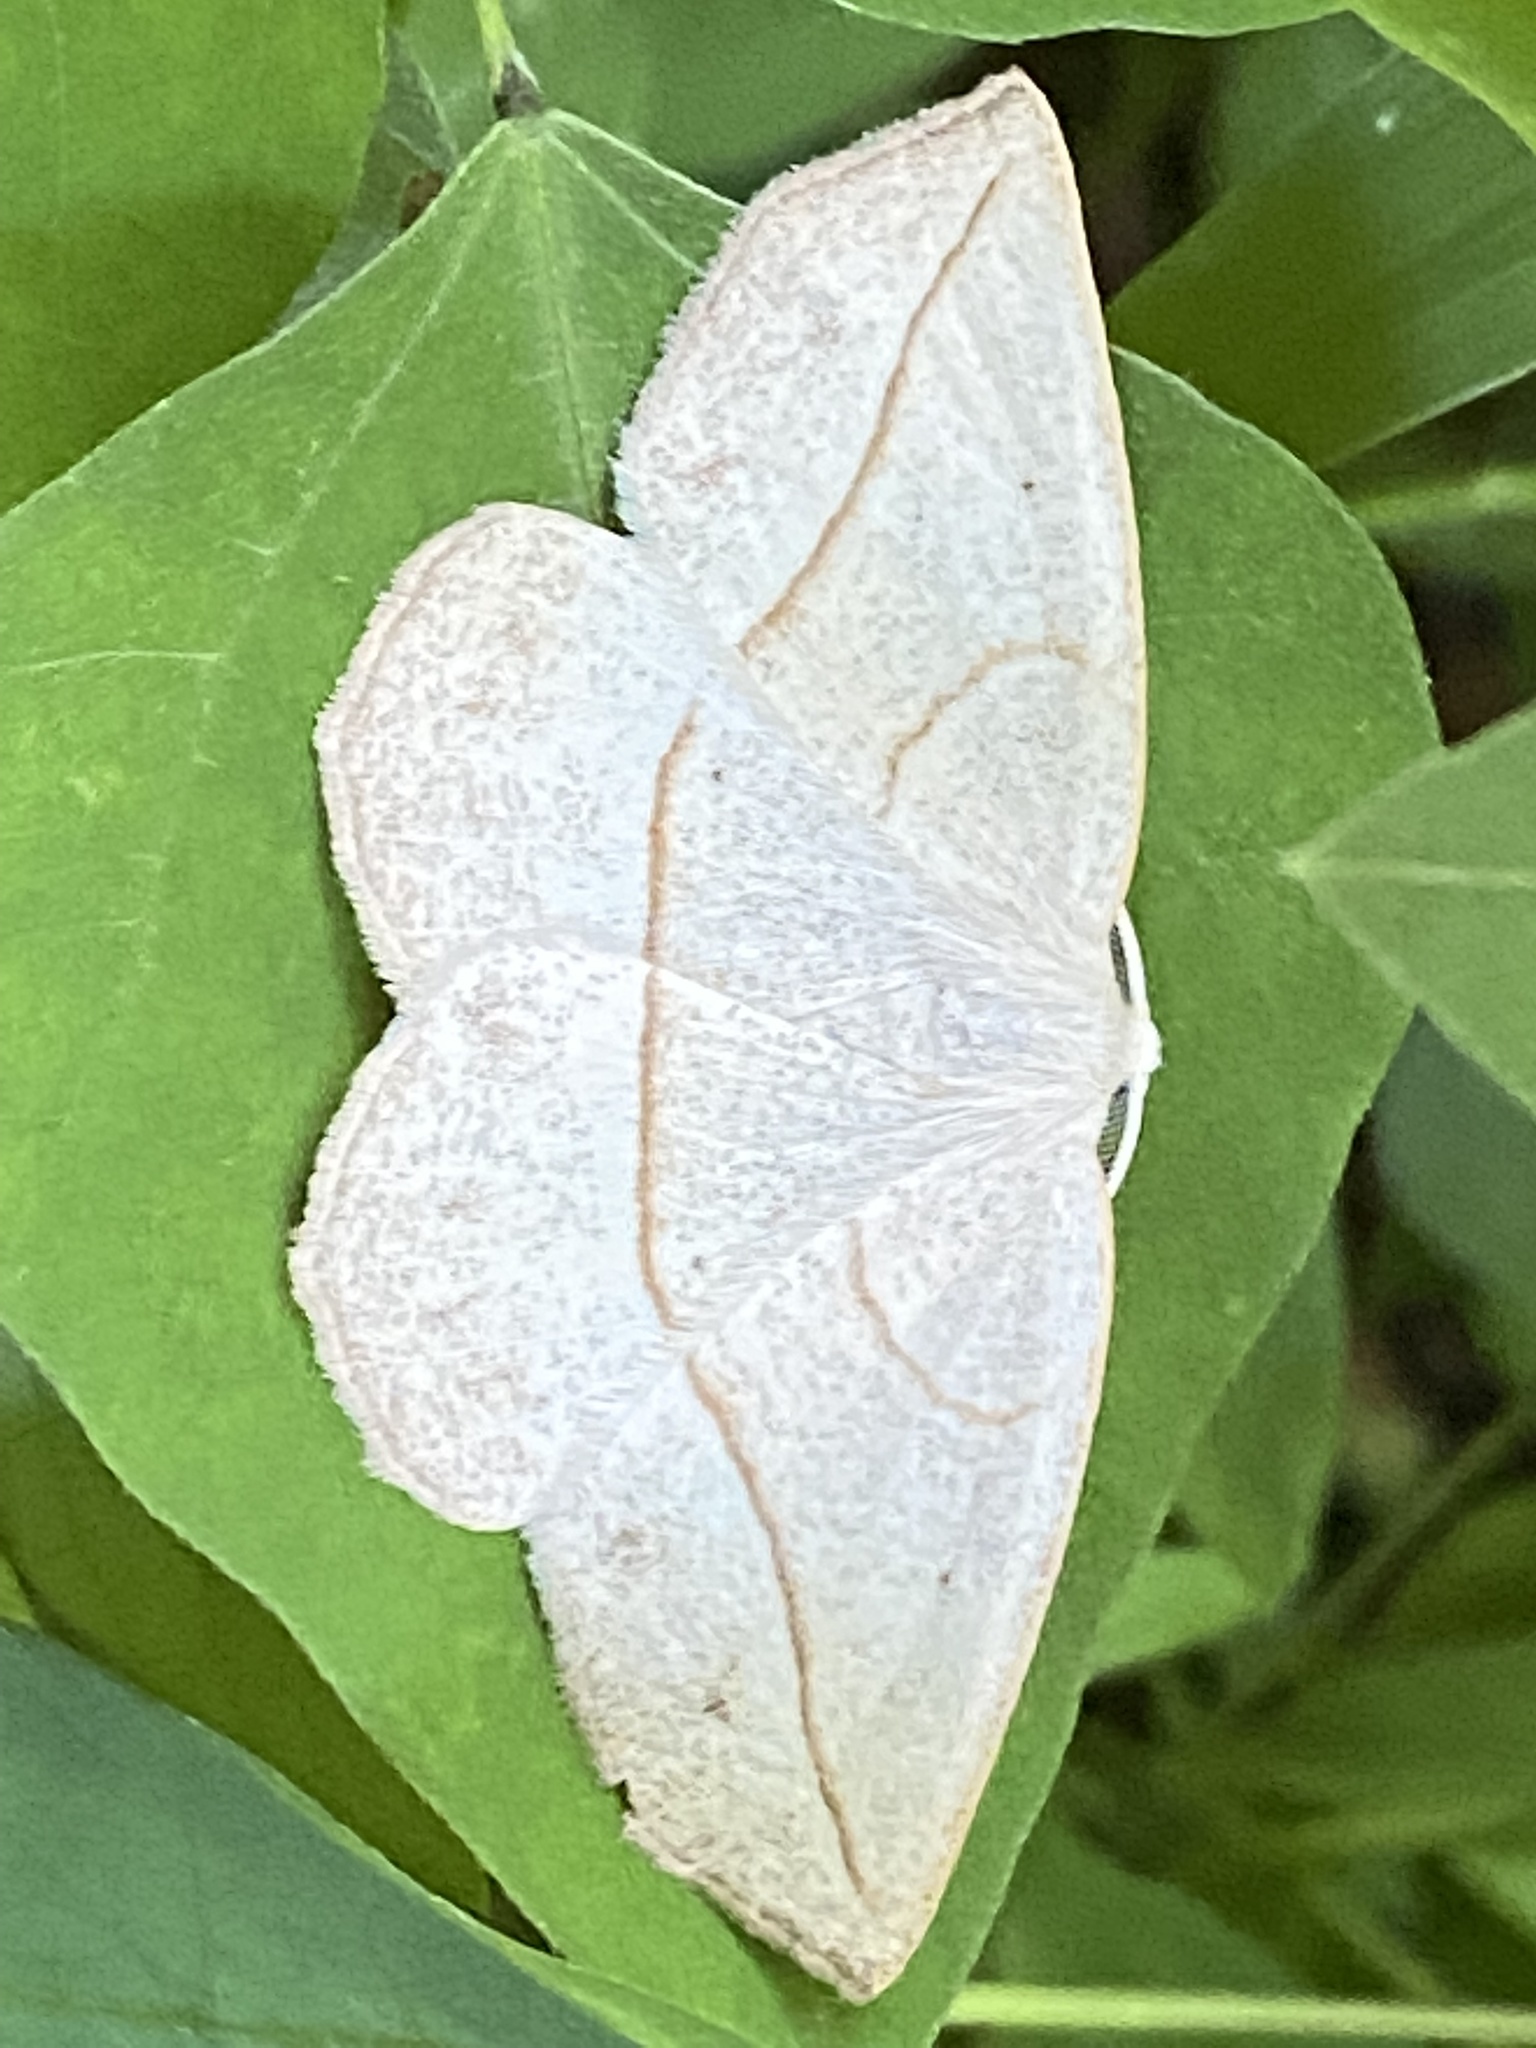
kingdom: Animalia
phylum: Arthropoda
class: Insecta
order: Lepidoptera
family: Geometridae
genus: Eusarca
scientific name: Eusarca confusaria
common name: Confused eusarca
